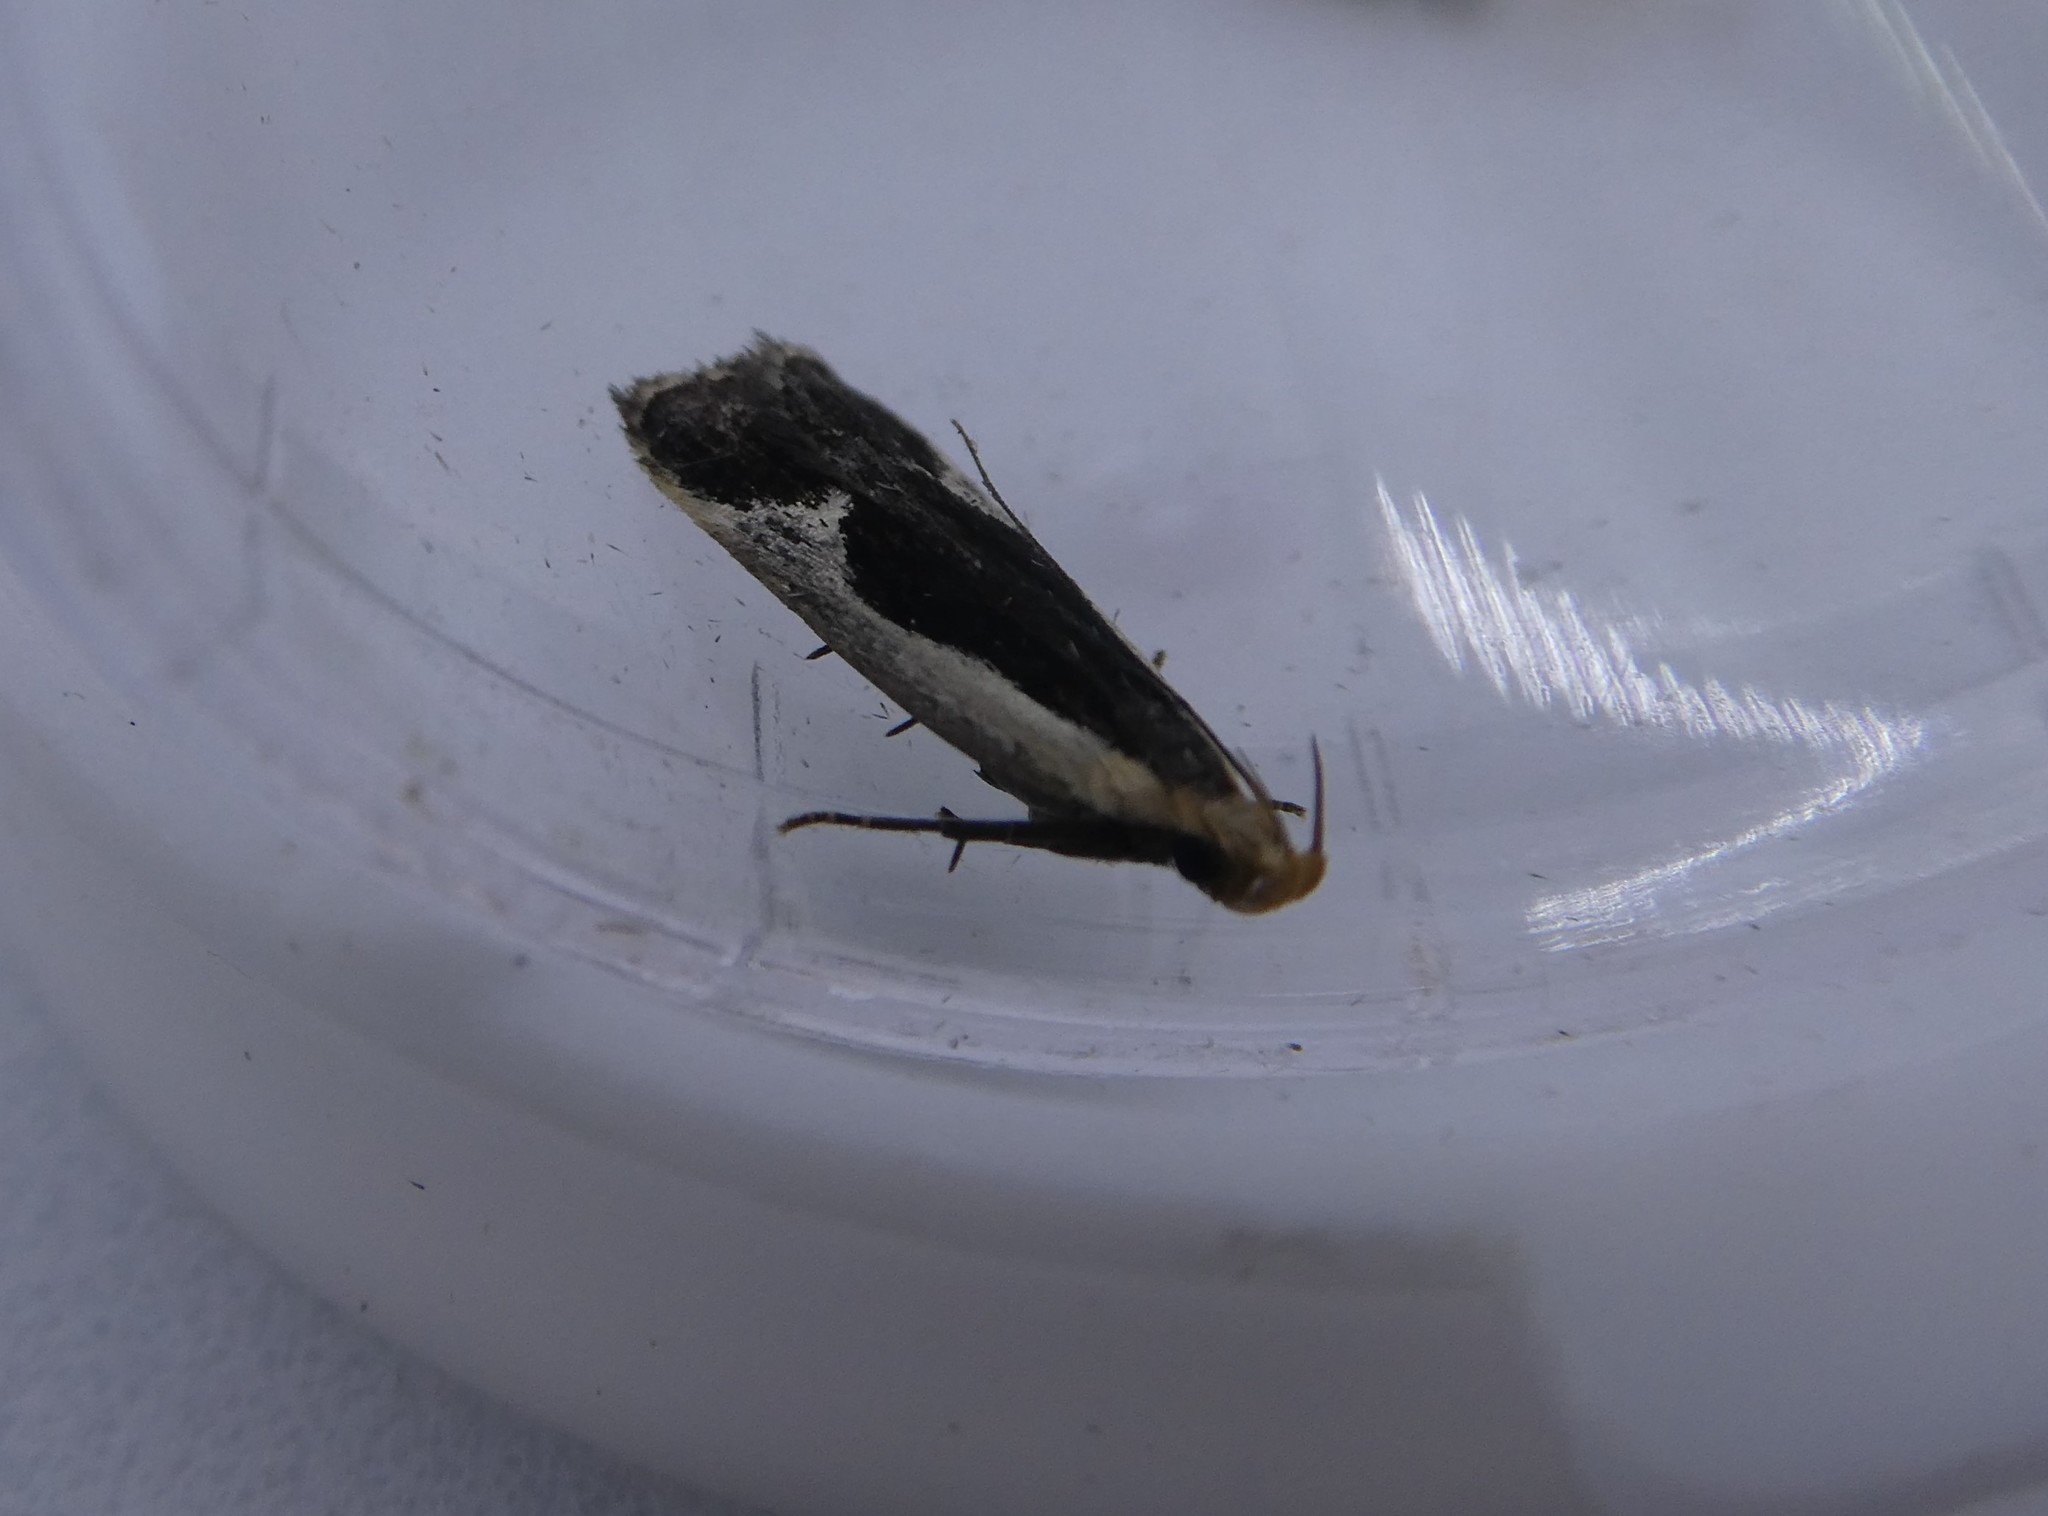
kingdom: Animalia
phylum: Arthropoda
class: Insecta
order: Lepidoptera
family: Gelechiidae
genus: Dichomeris
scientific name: Dichomeris flavocostella
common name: Cream-edged dichomeris moth
